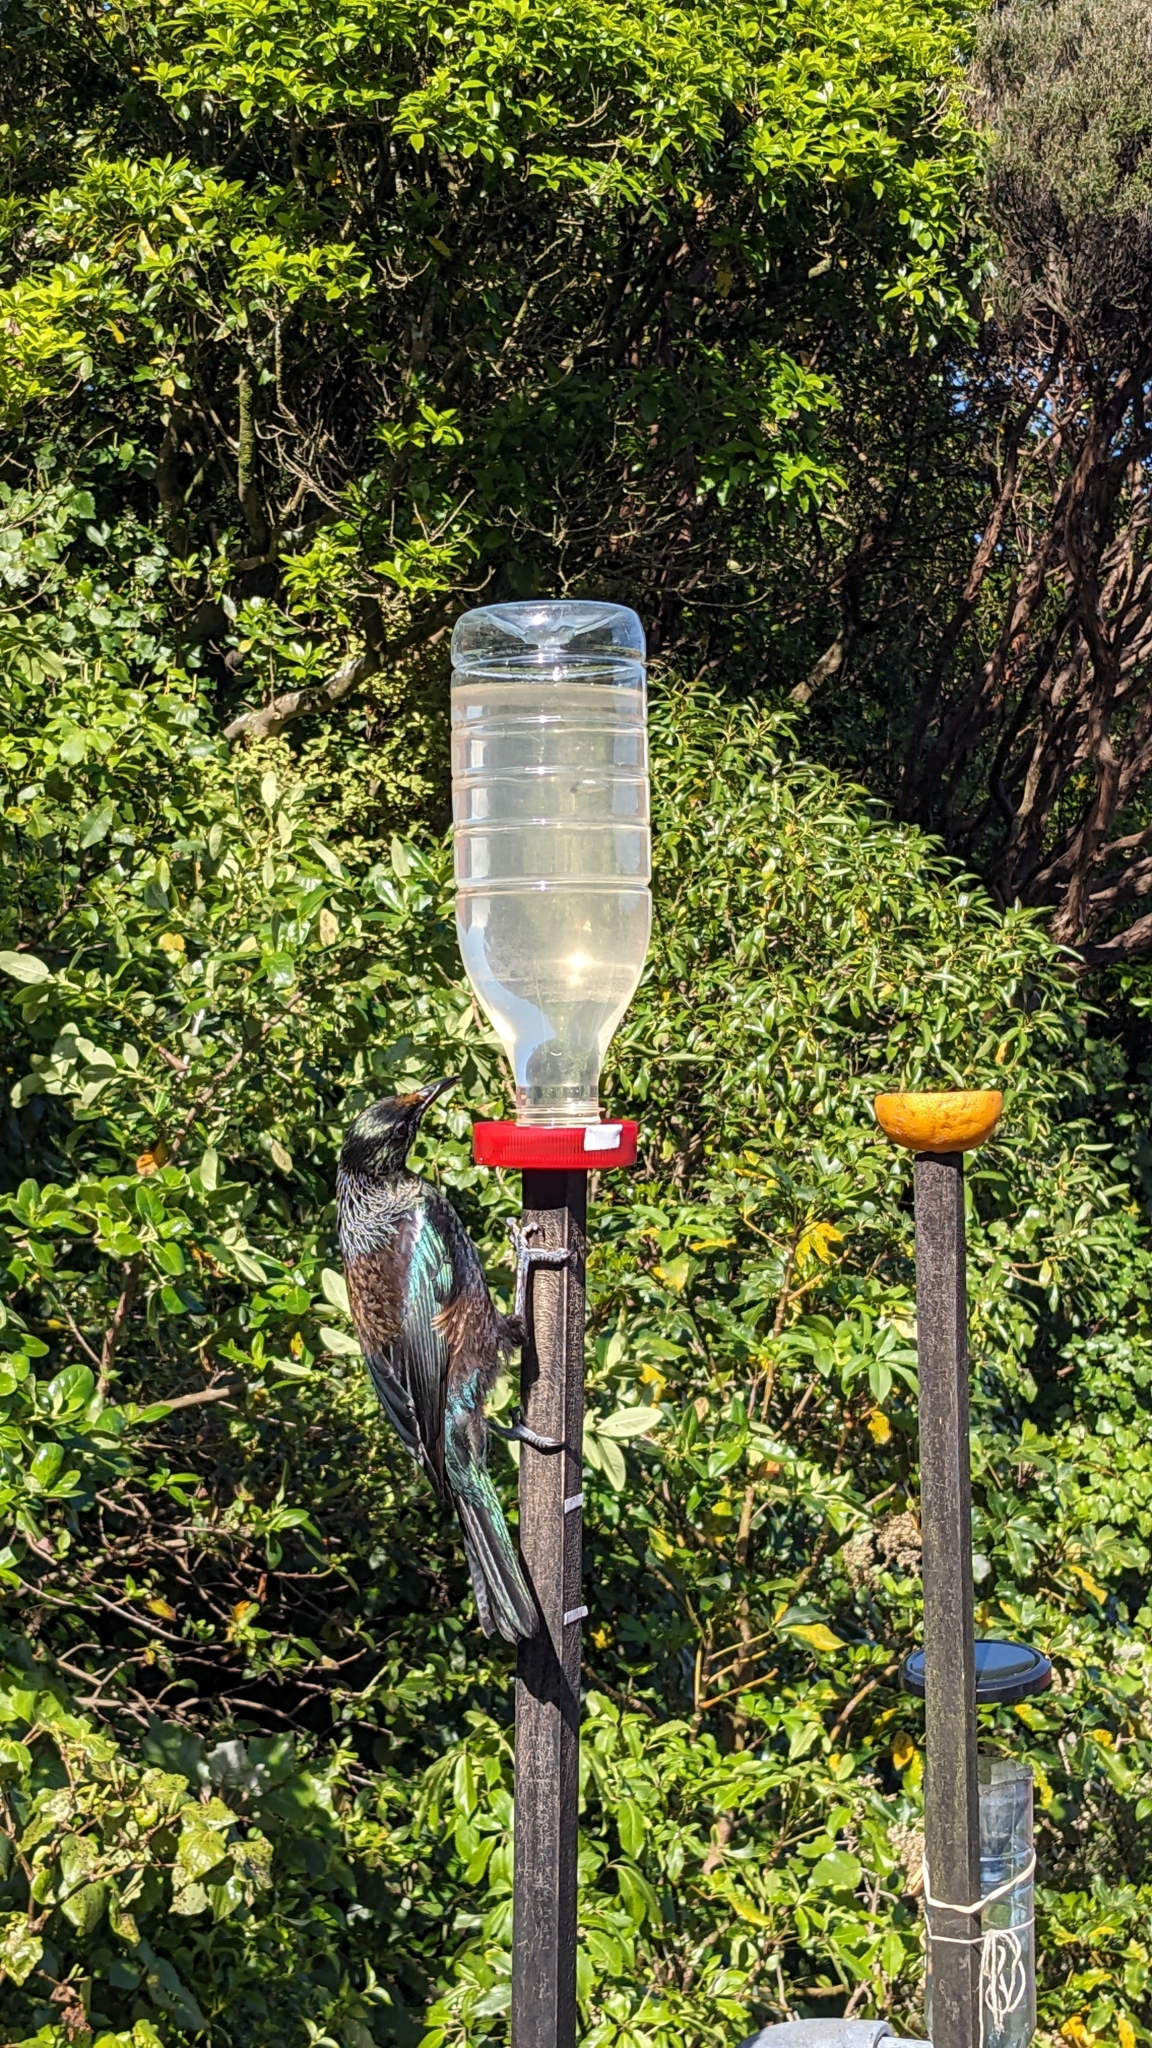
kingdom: Animalia
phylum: Chordata
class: Aves
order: Passeriformes
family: Meliphagidae
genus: Prosthemadera
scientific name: Prosthemadera novaeseelandiae
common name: Tui
